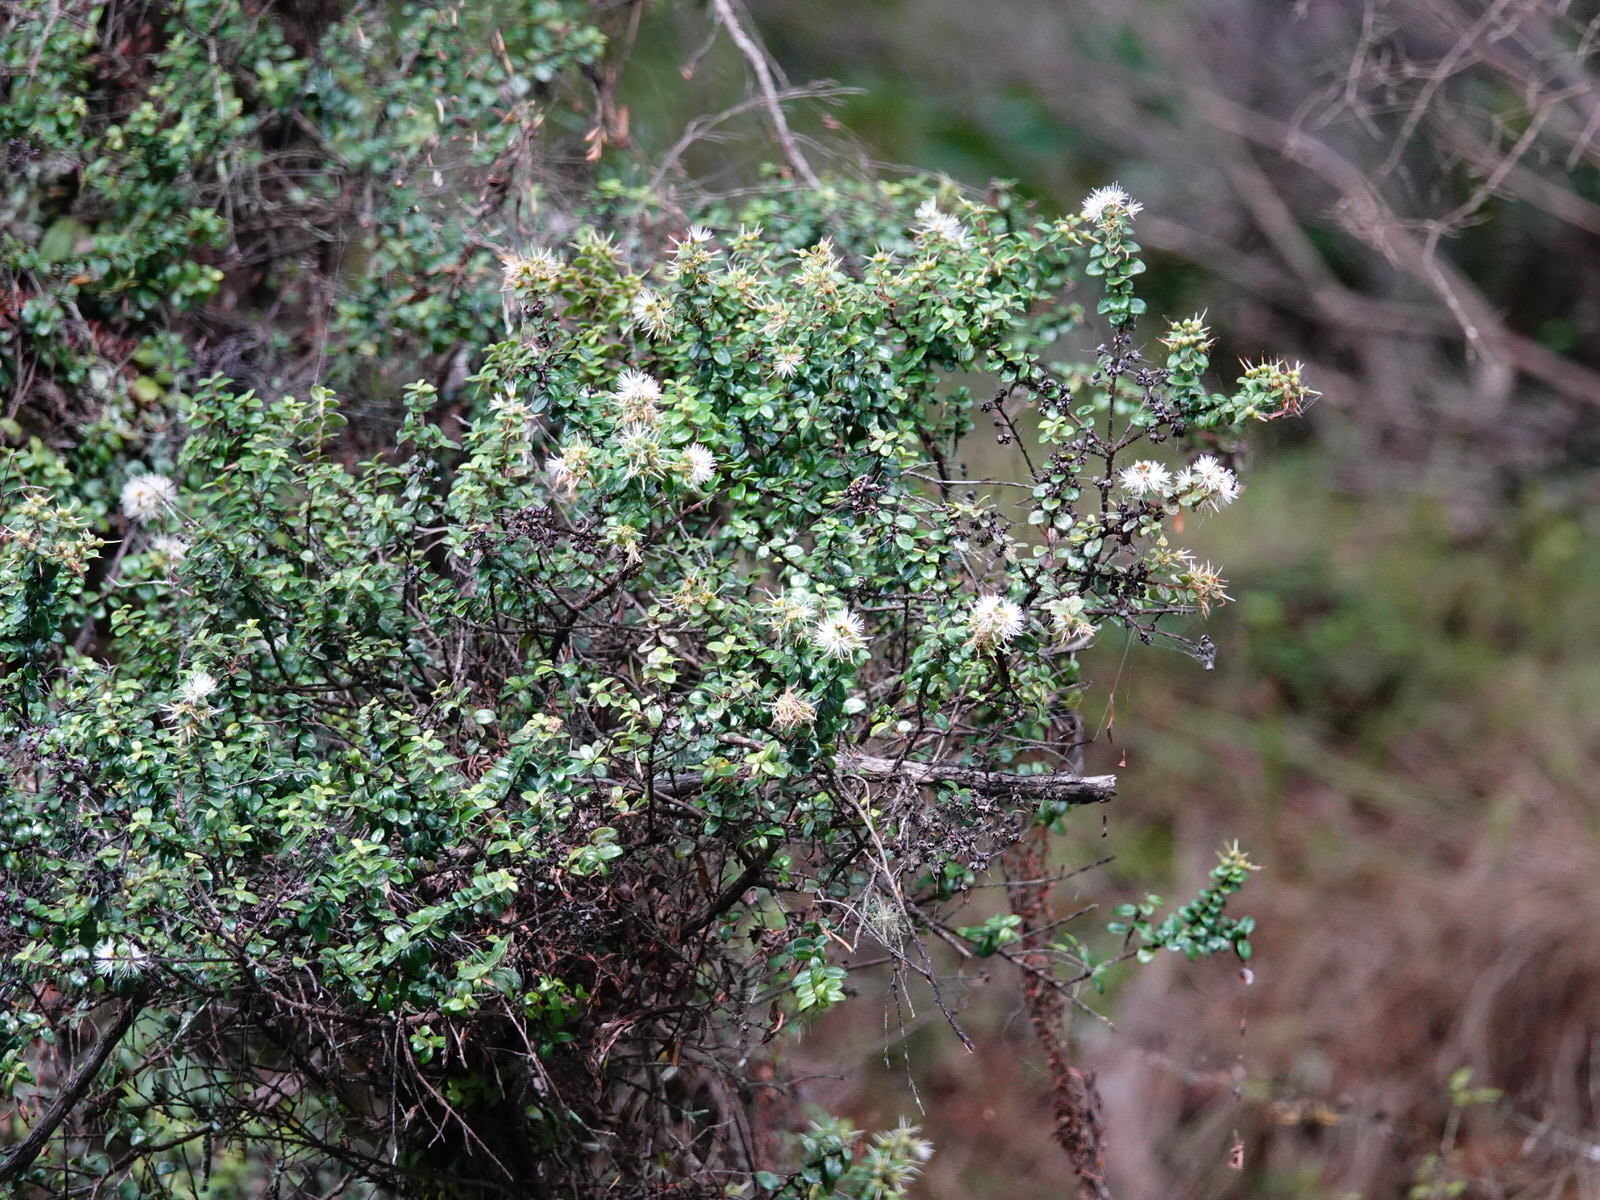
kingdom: Plantae
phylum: Tracheophyta
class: Magnoliopsida
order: Myrtales
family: Myrtaceae
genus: Metrosideros
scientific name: Metrosideros perforata
